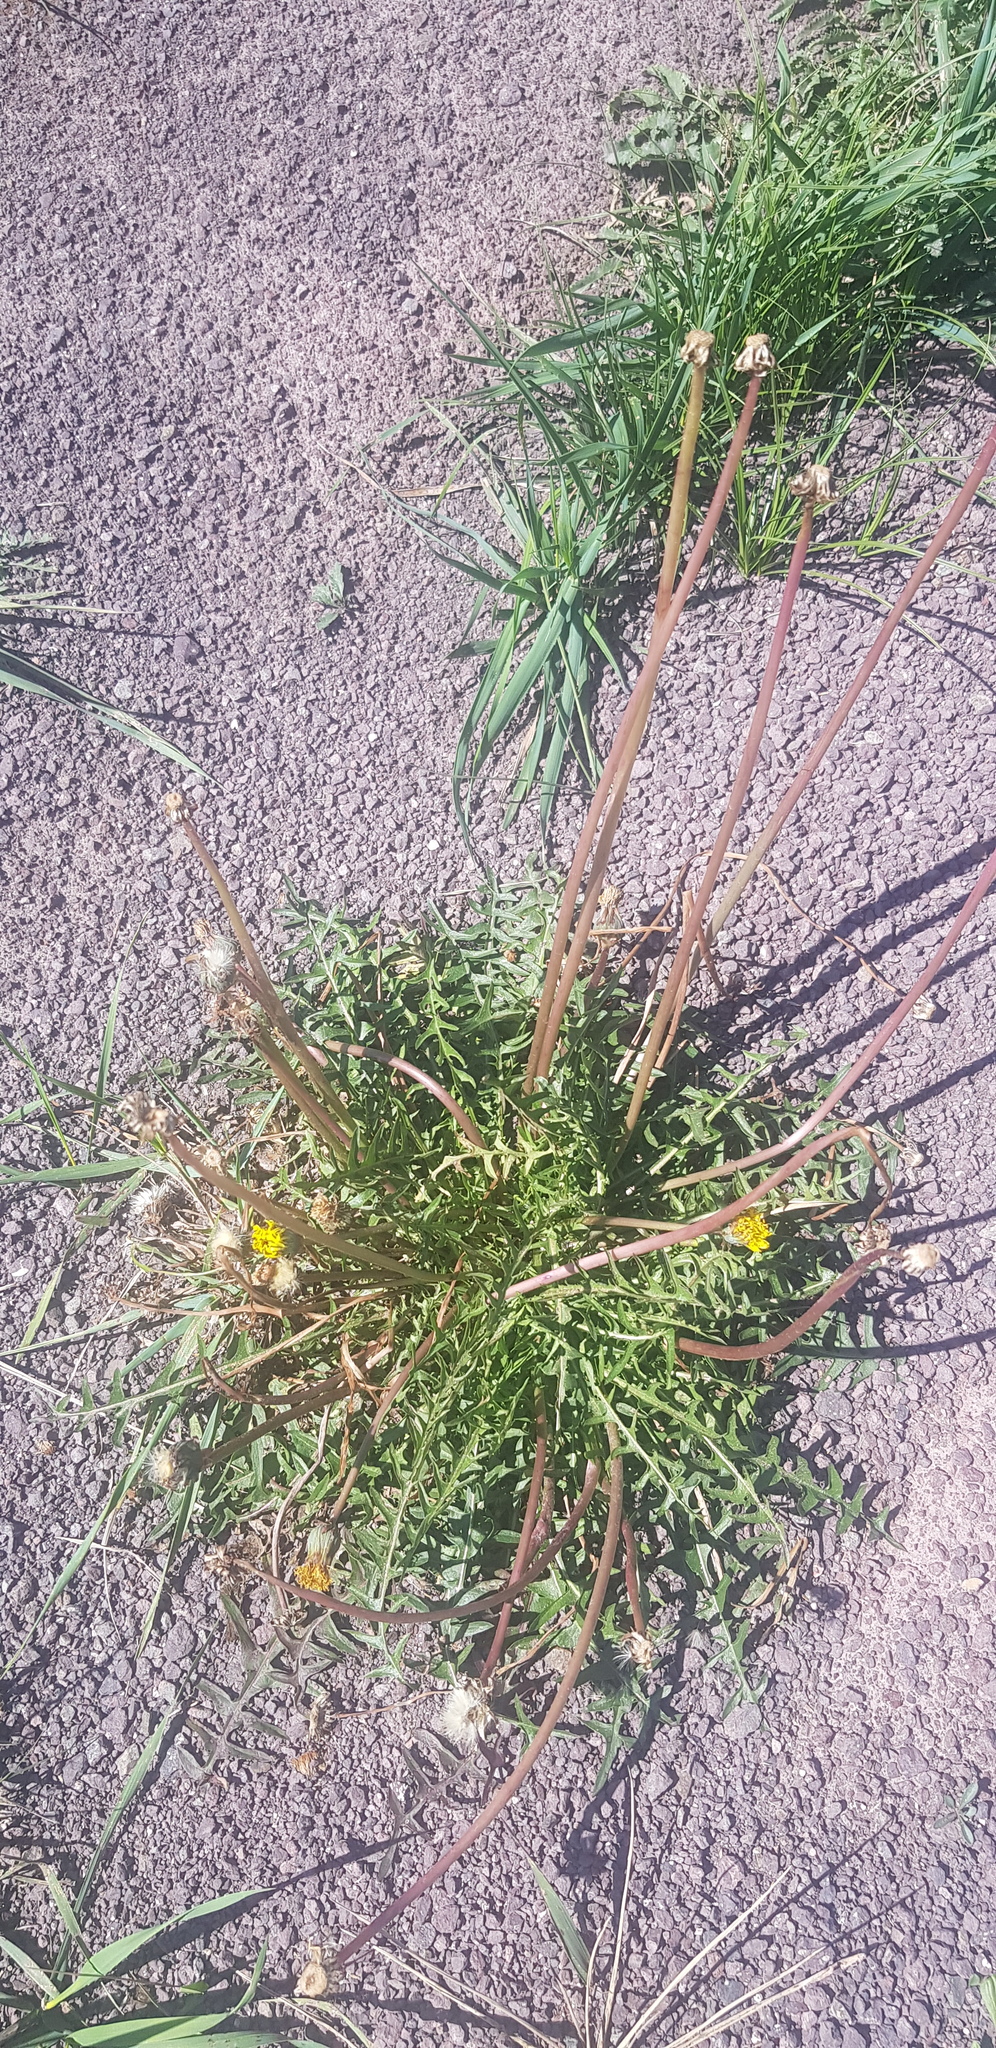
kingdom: Plantae
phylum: Tracheophyta
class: Magnoliopsida
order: Asterales
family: Asteraceae
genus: Taraxacum
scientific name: Taraxacum officinale
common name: Common dandelion
